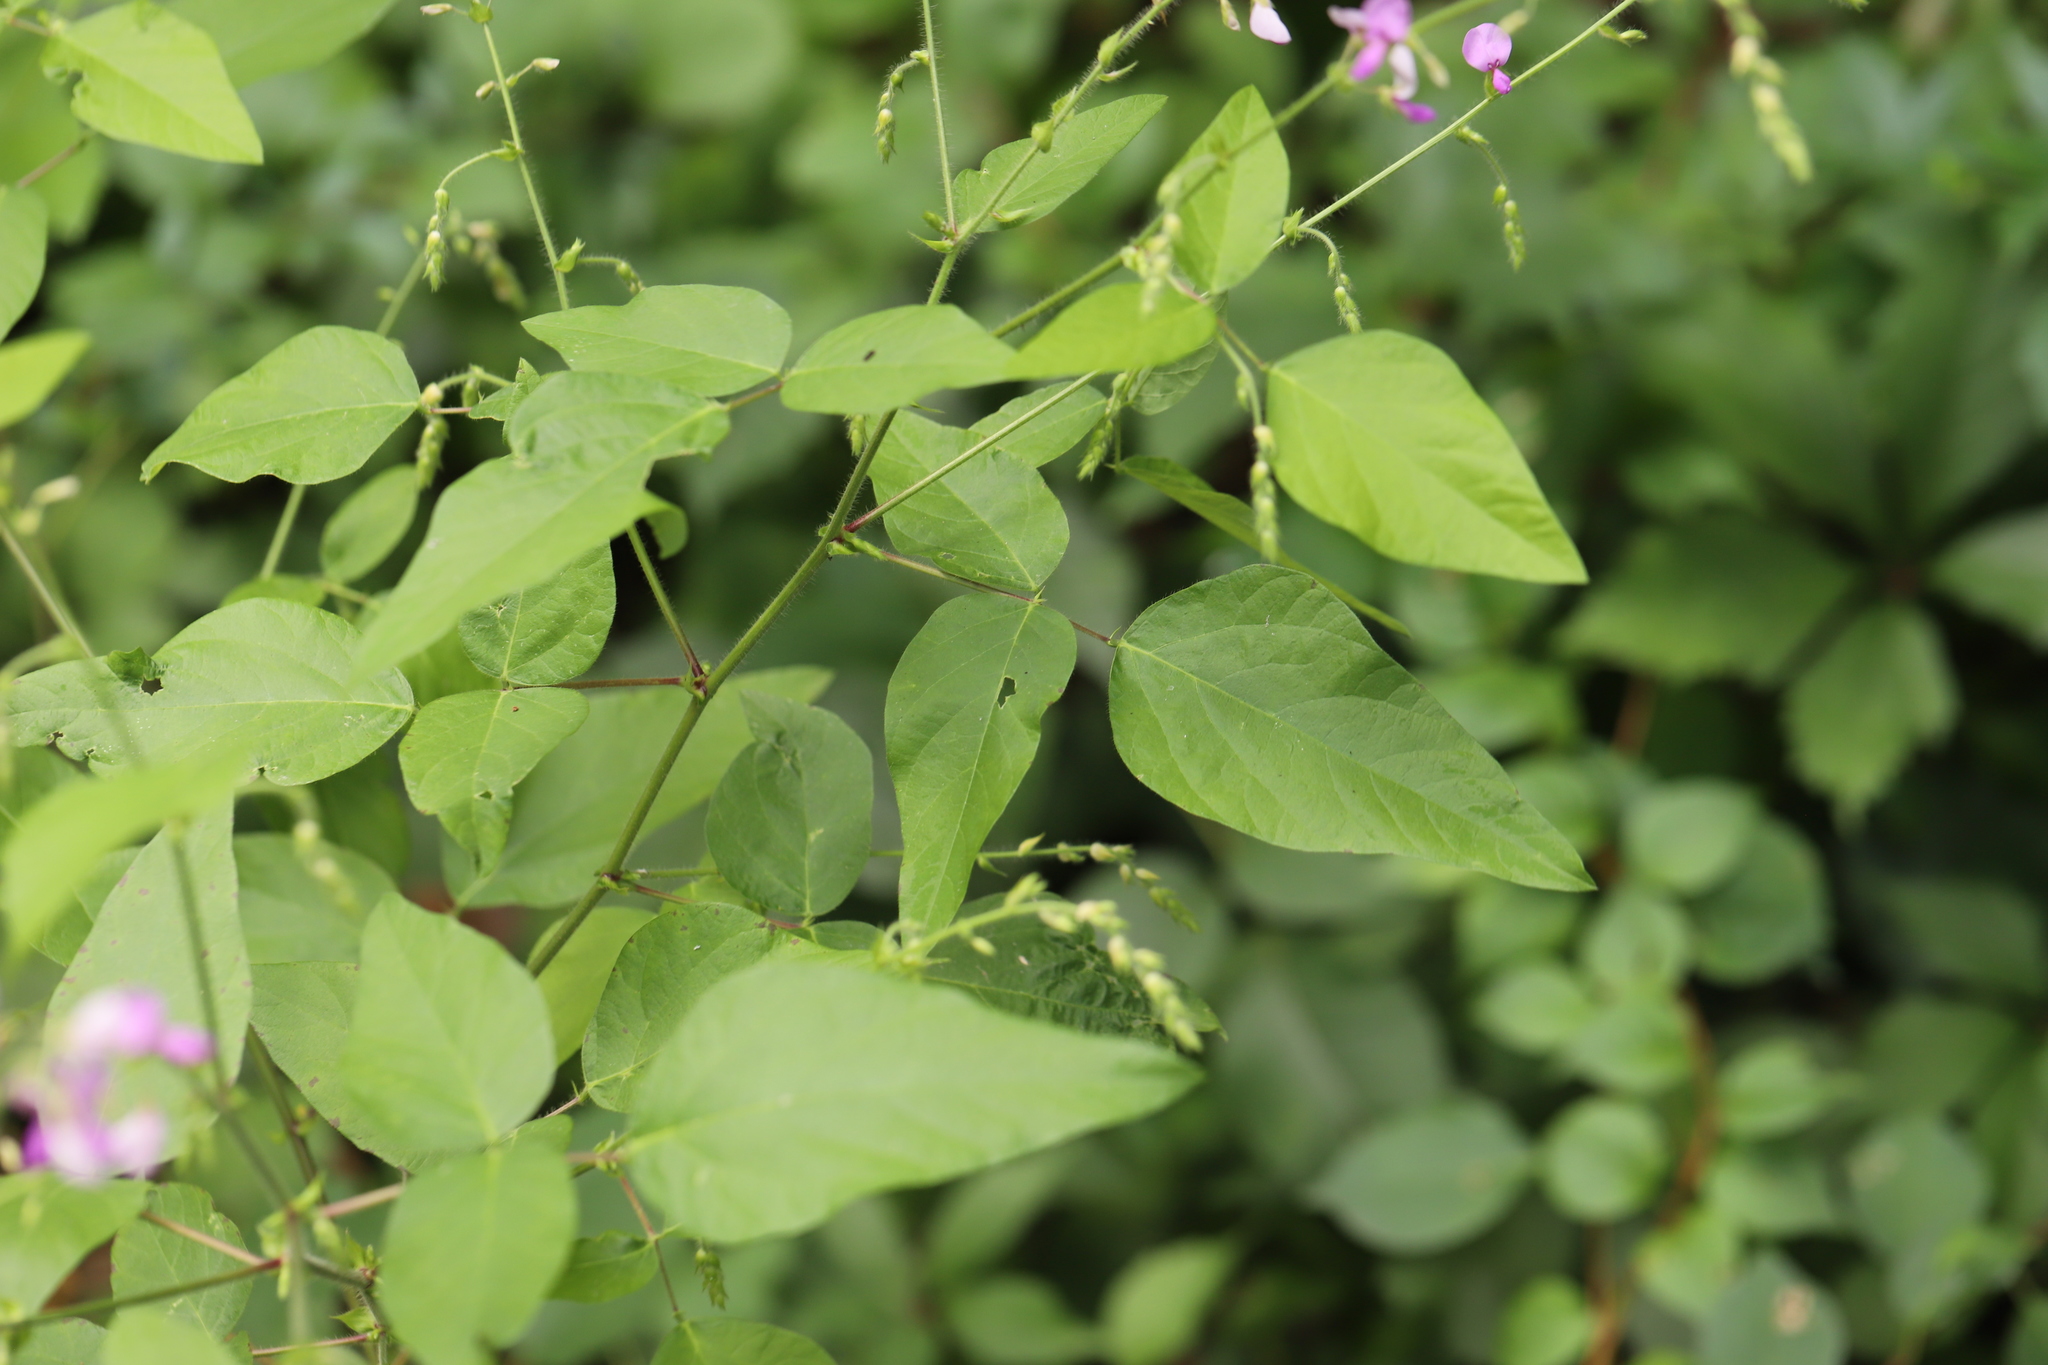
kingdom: Plantae
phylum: Tracheophyta
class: Magnoliopsida
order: Fabales
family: Fabaceae
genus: Desmodium
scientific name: Desmodium canescens
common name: Hoary tick-clover
